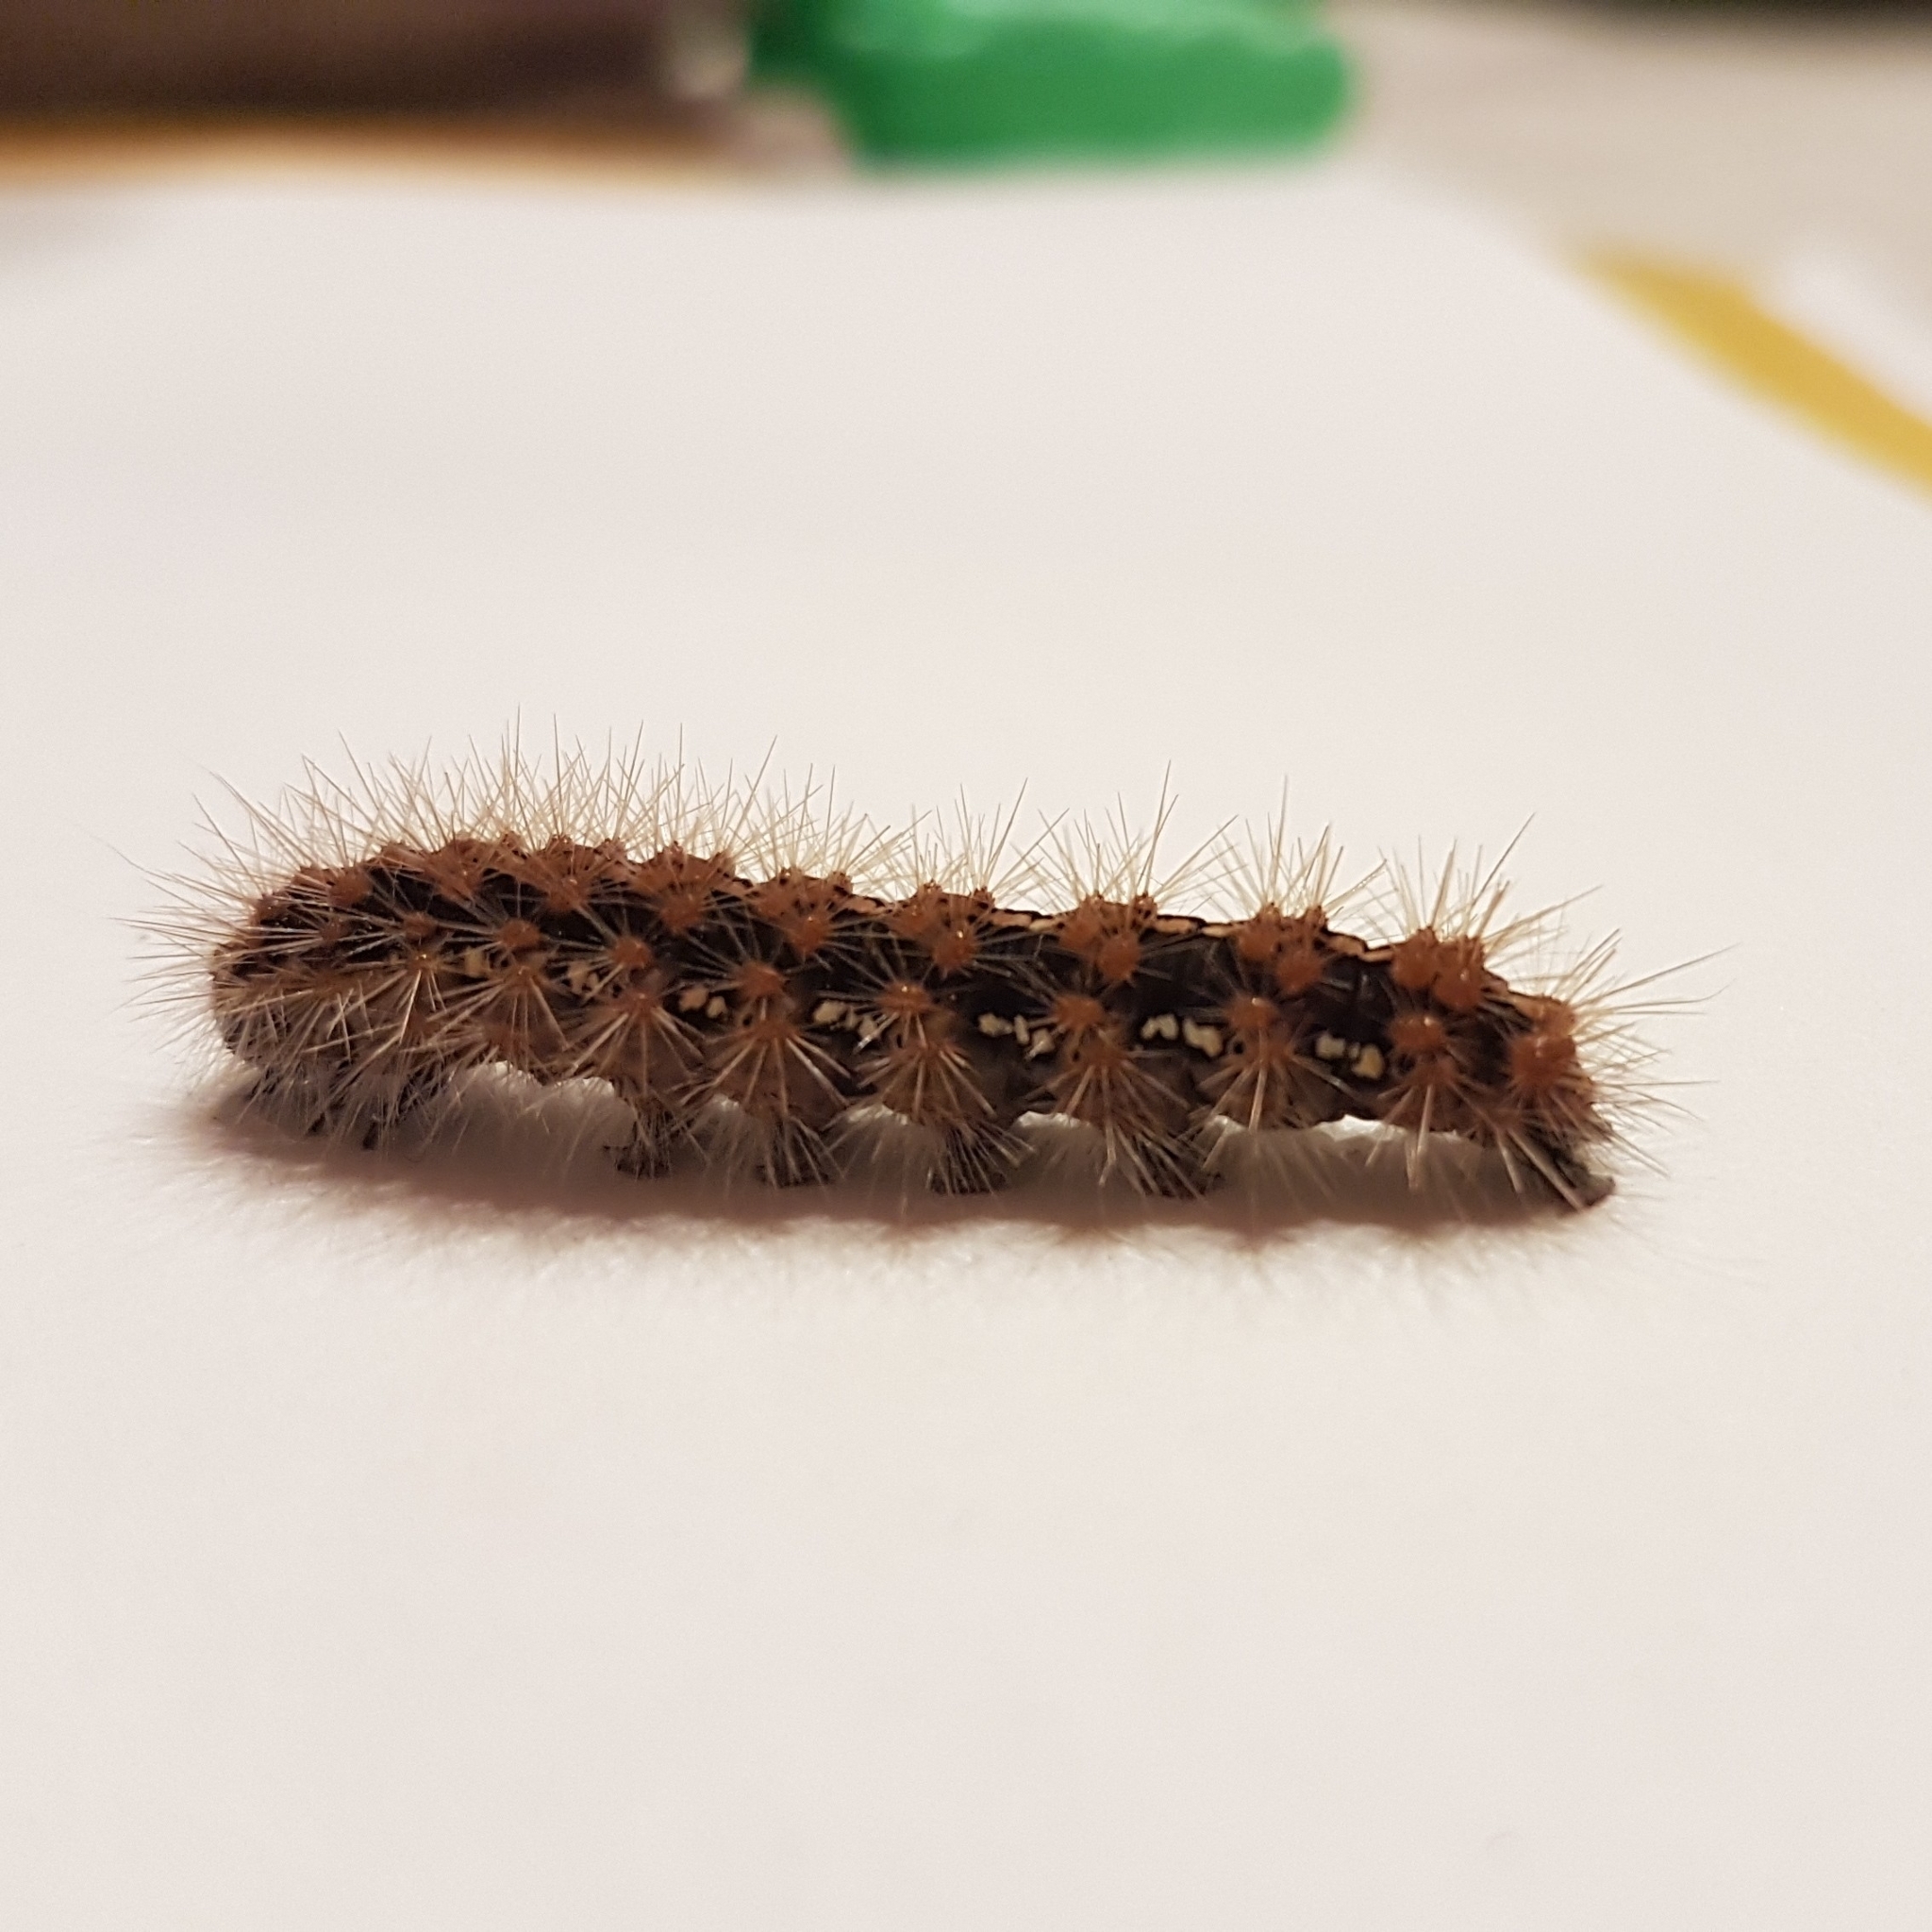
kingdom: Animalia
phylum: Arthropoda
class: Insecta
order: Lepidoptera
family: Erebidae
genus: Euplagia
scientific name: Euplagia quadripunctaria
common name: Jersey tiger
